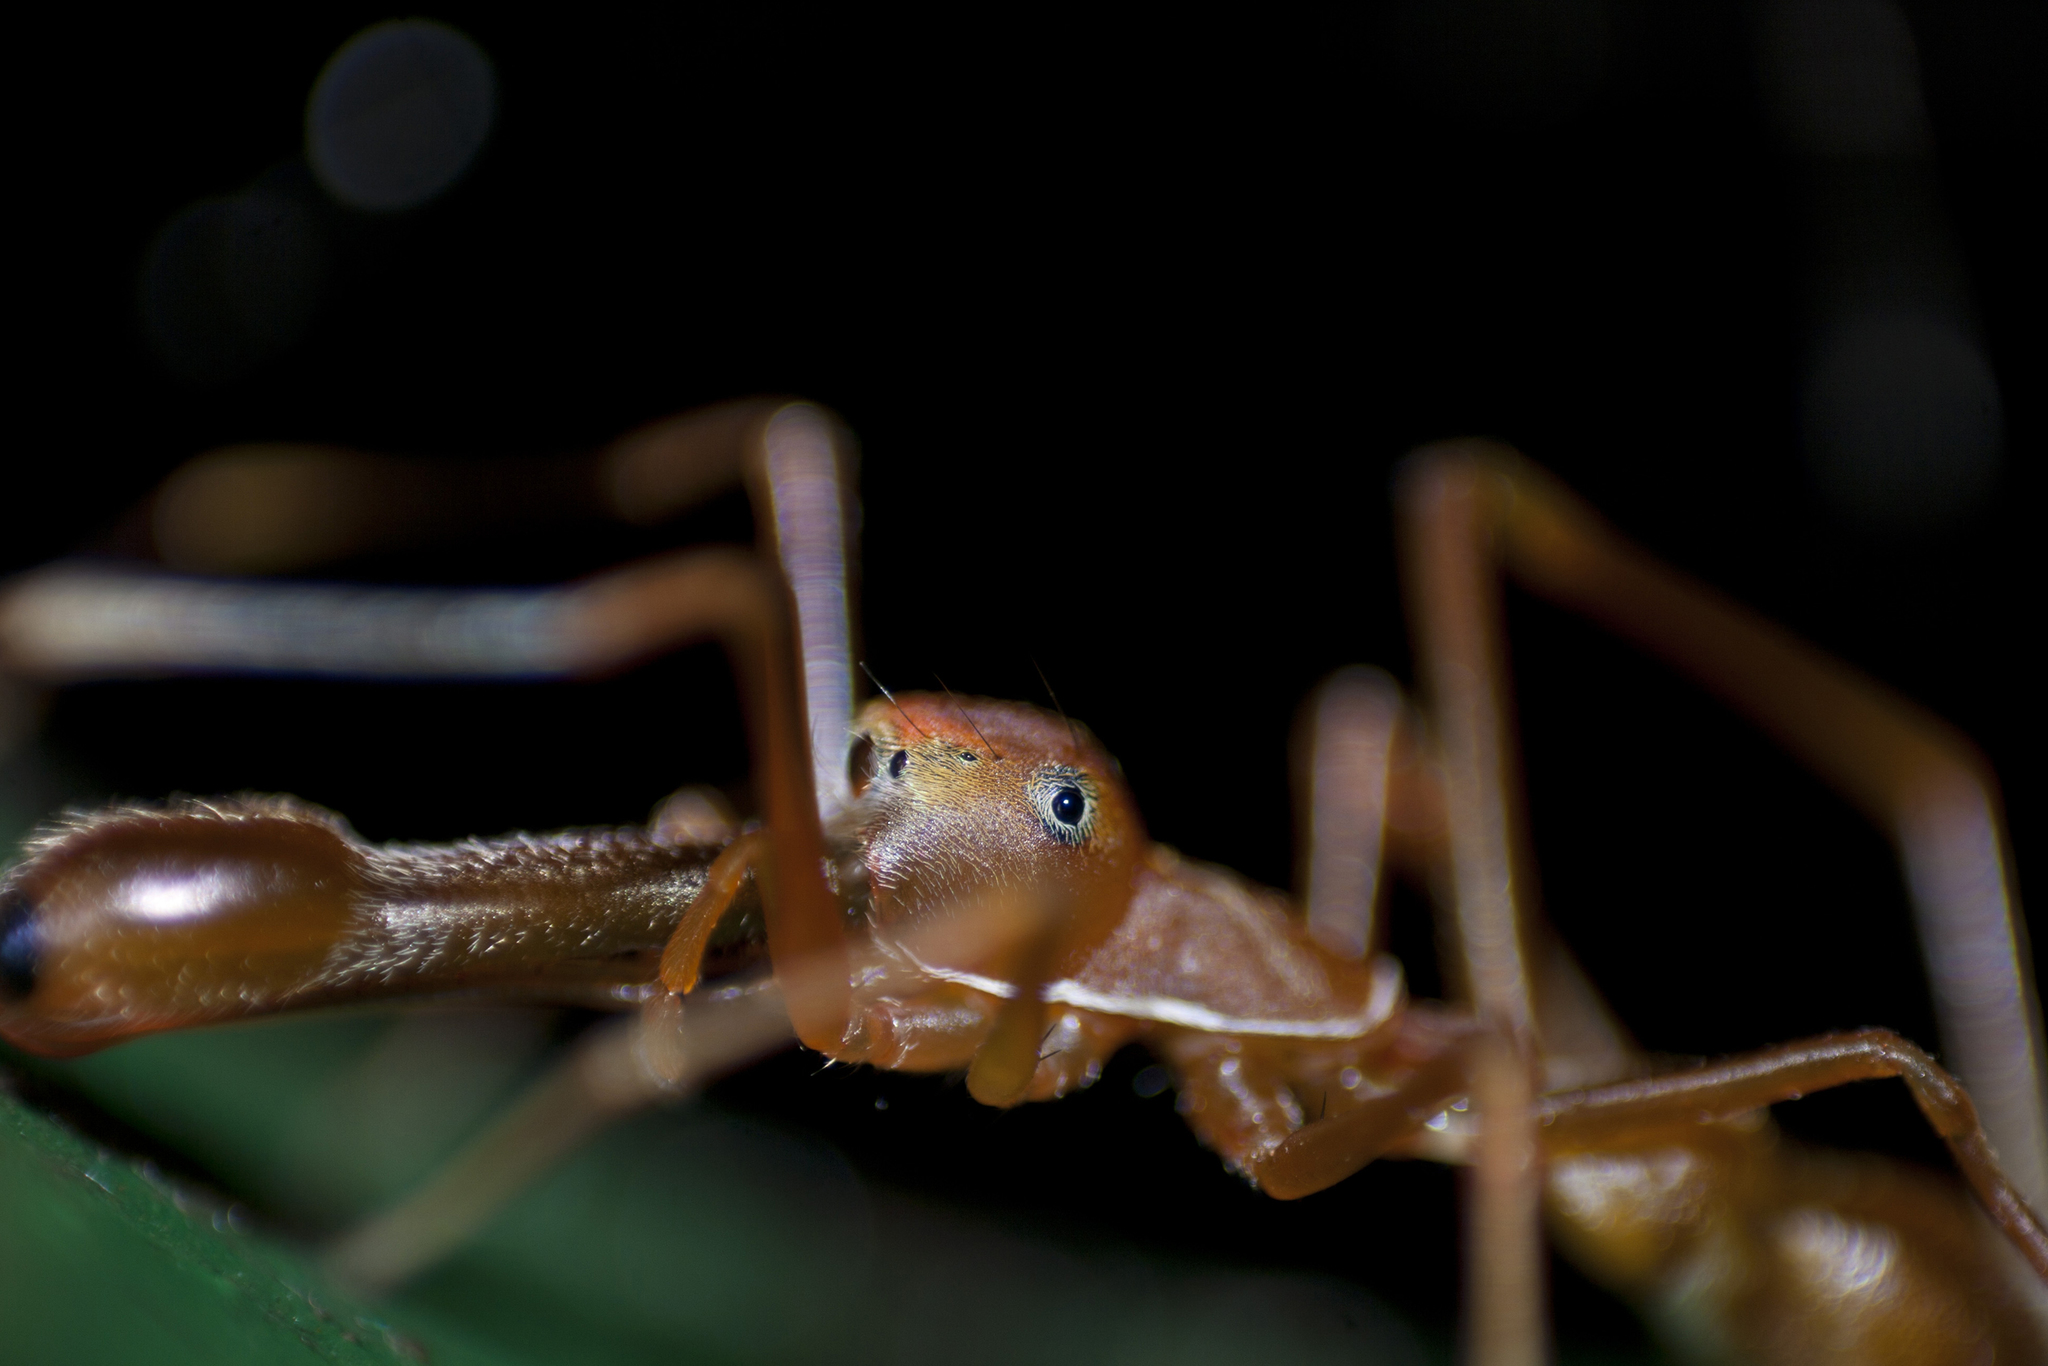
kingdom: Animalia
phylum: Arthropoda
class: Arachnida
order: Araneae
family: Salticidae
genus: Myrmaplata
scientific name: Myrmaplata plataleoides
